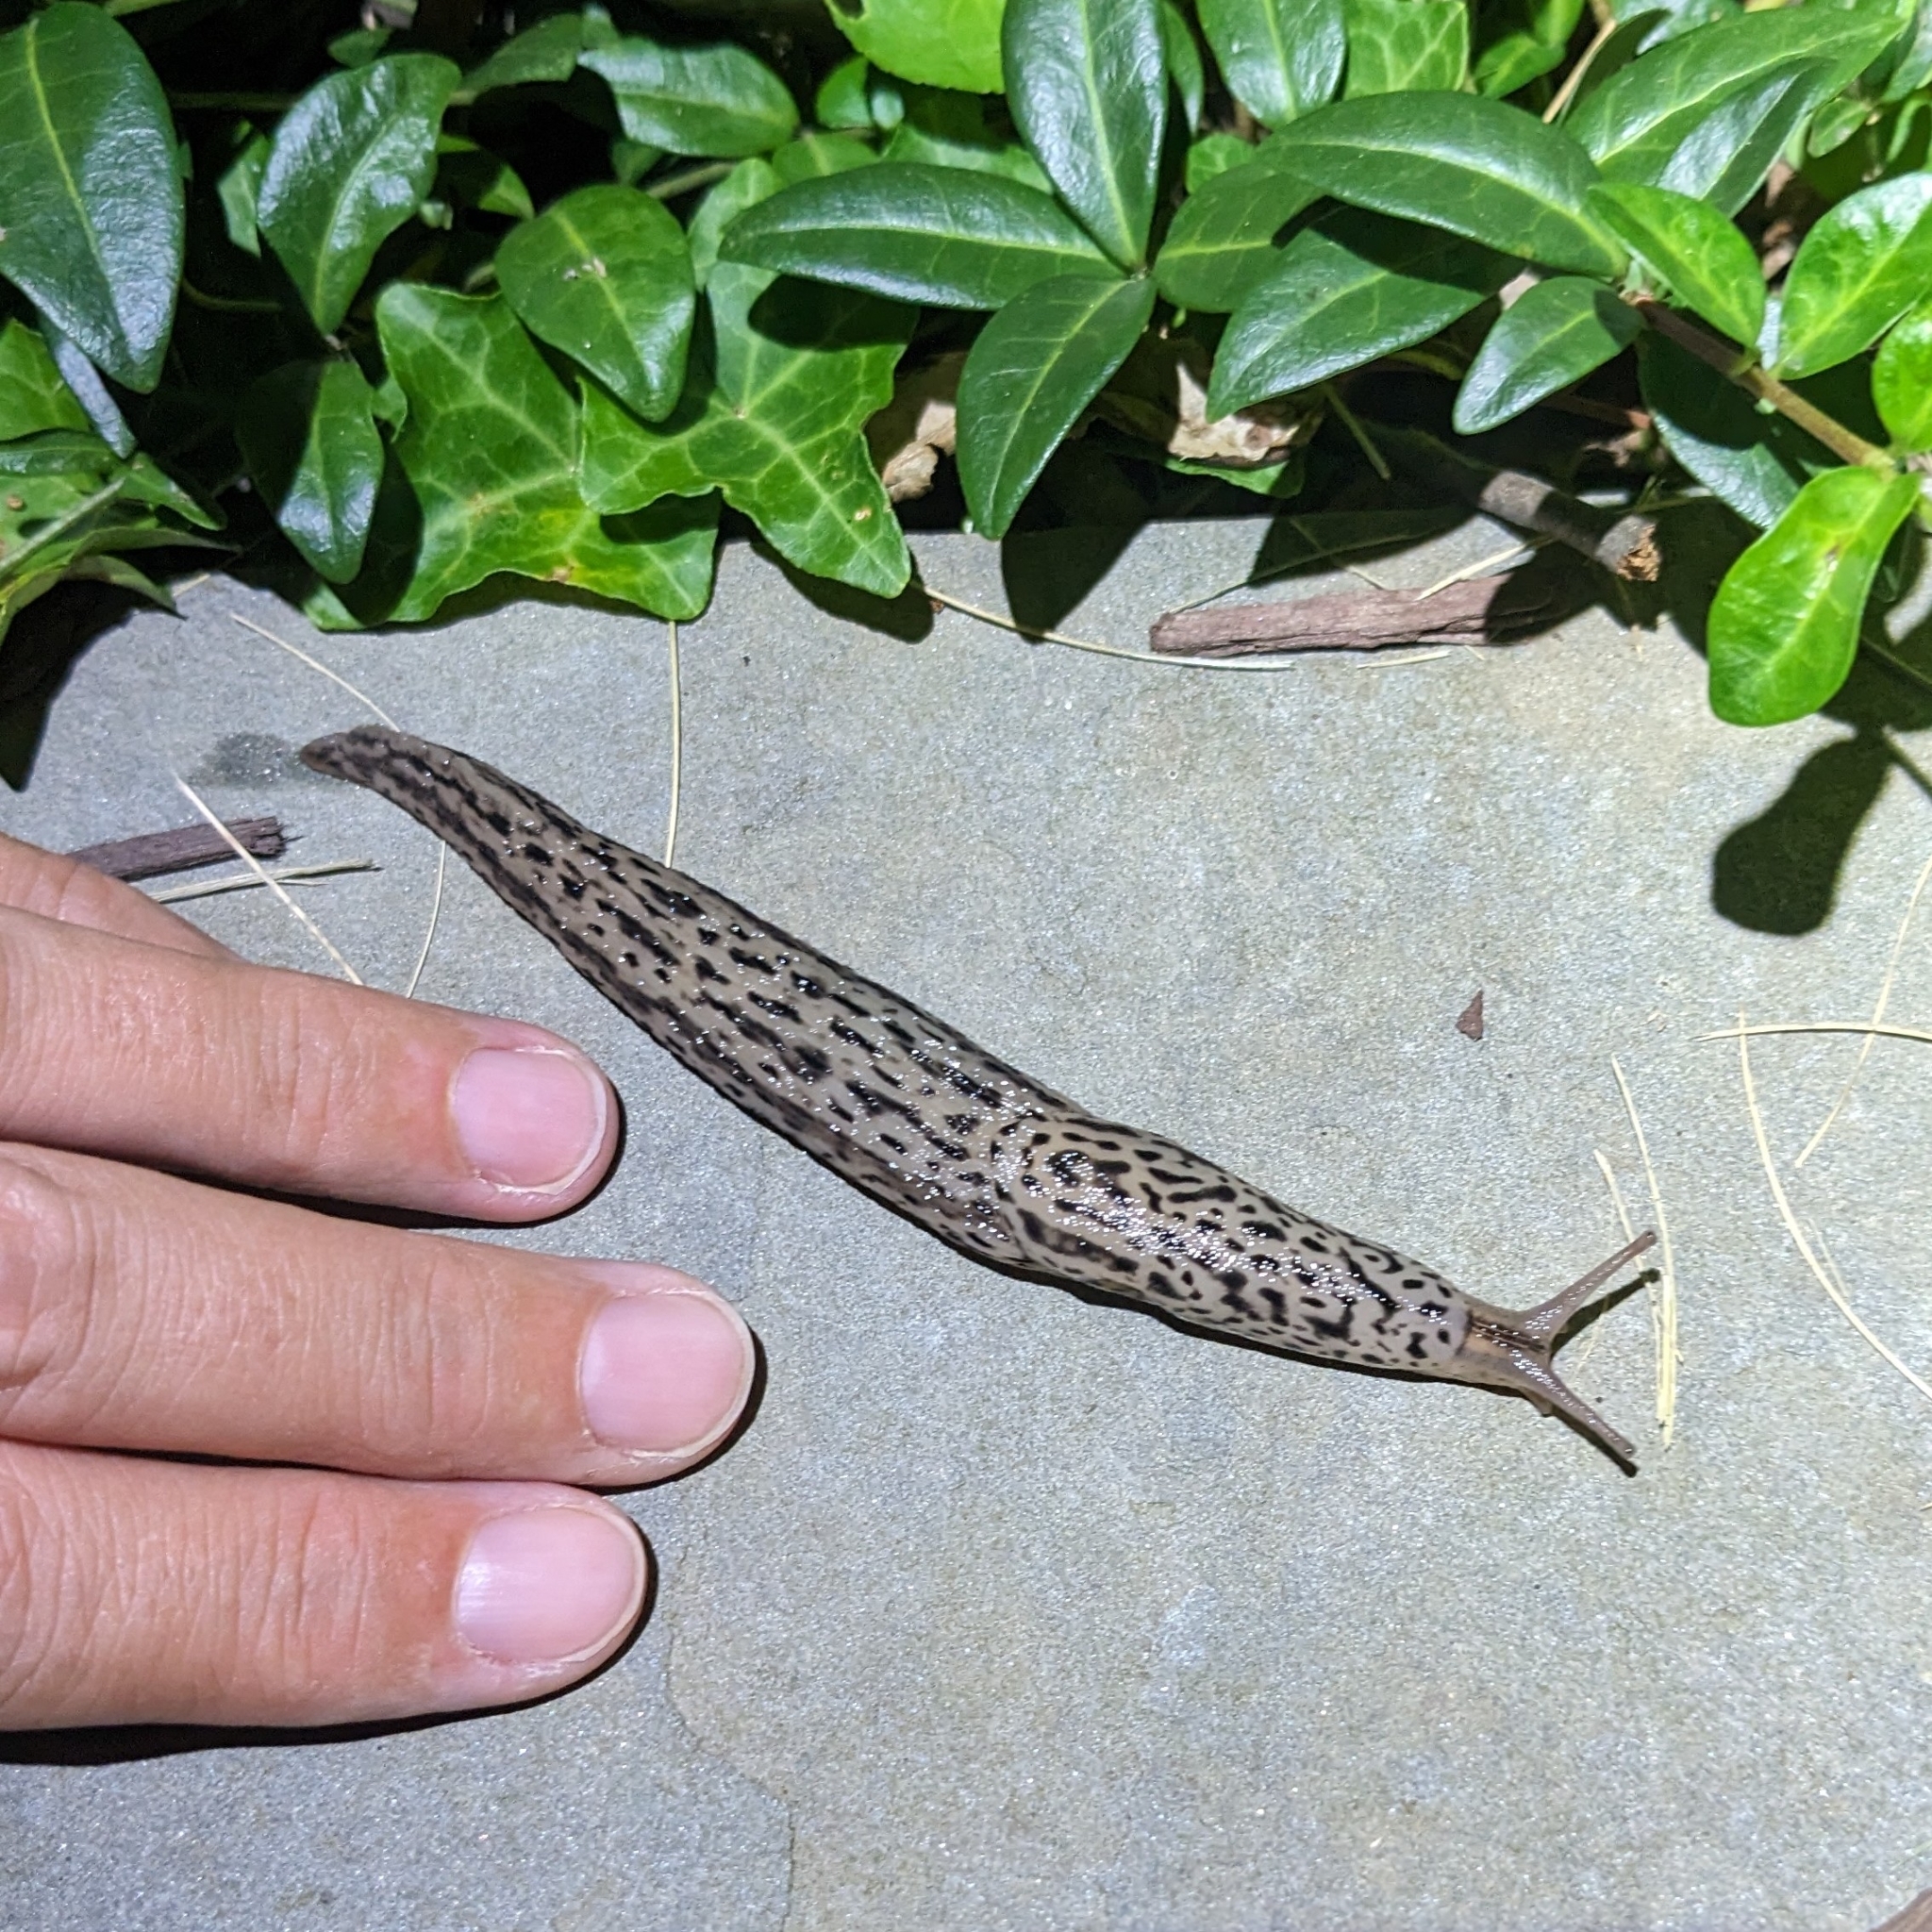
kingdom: Animalia
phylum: Mollusca
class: Gastropoda
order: Stylommatophora
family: Limacidae
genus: Limax
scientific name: Limax maximus
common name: Great grey slug
